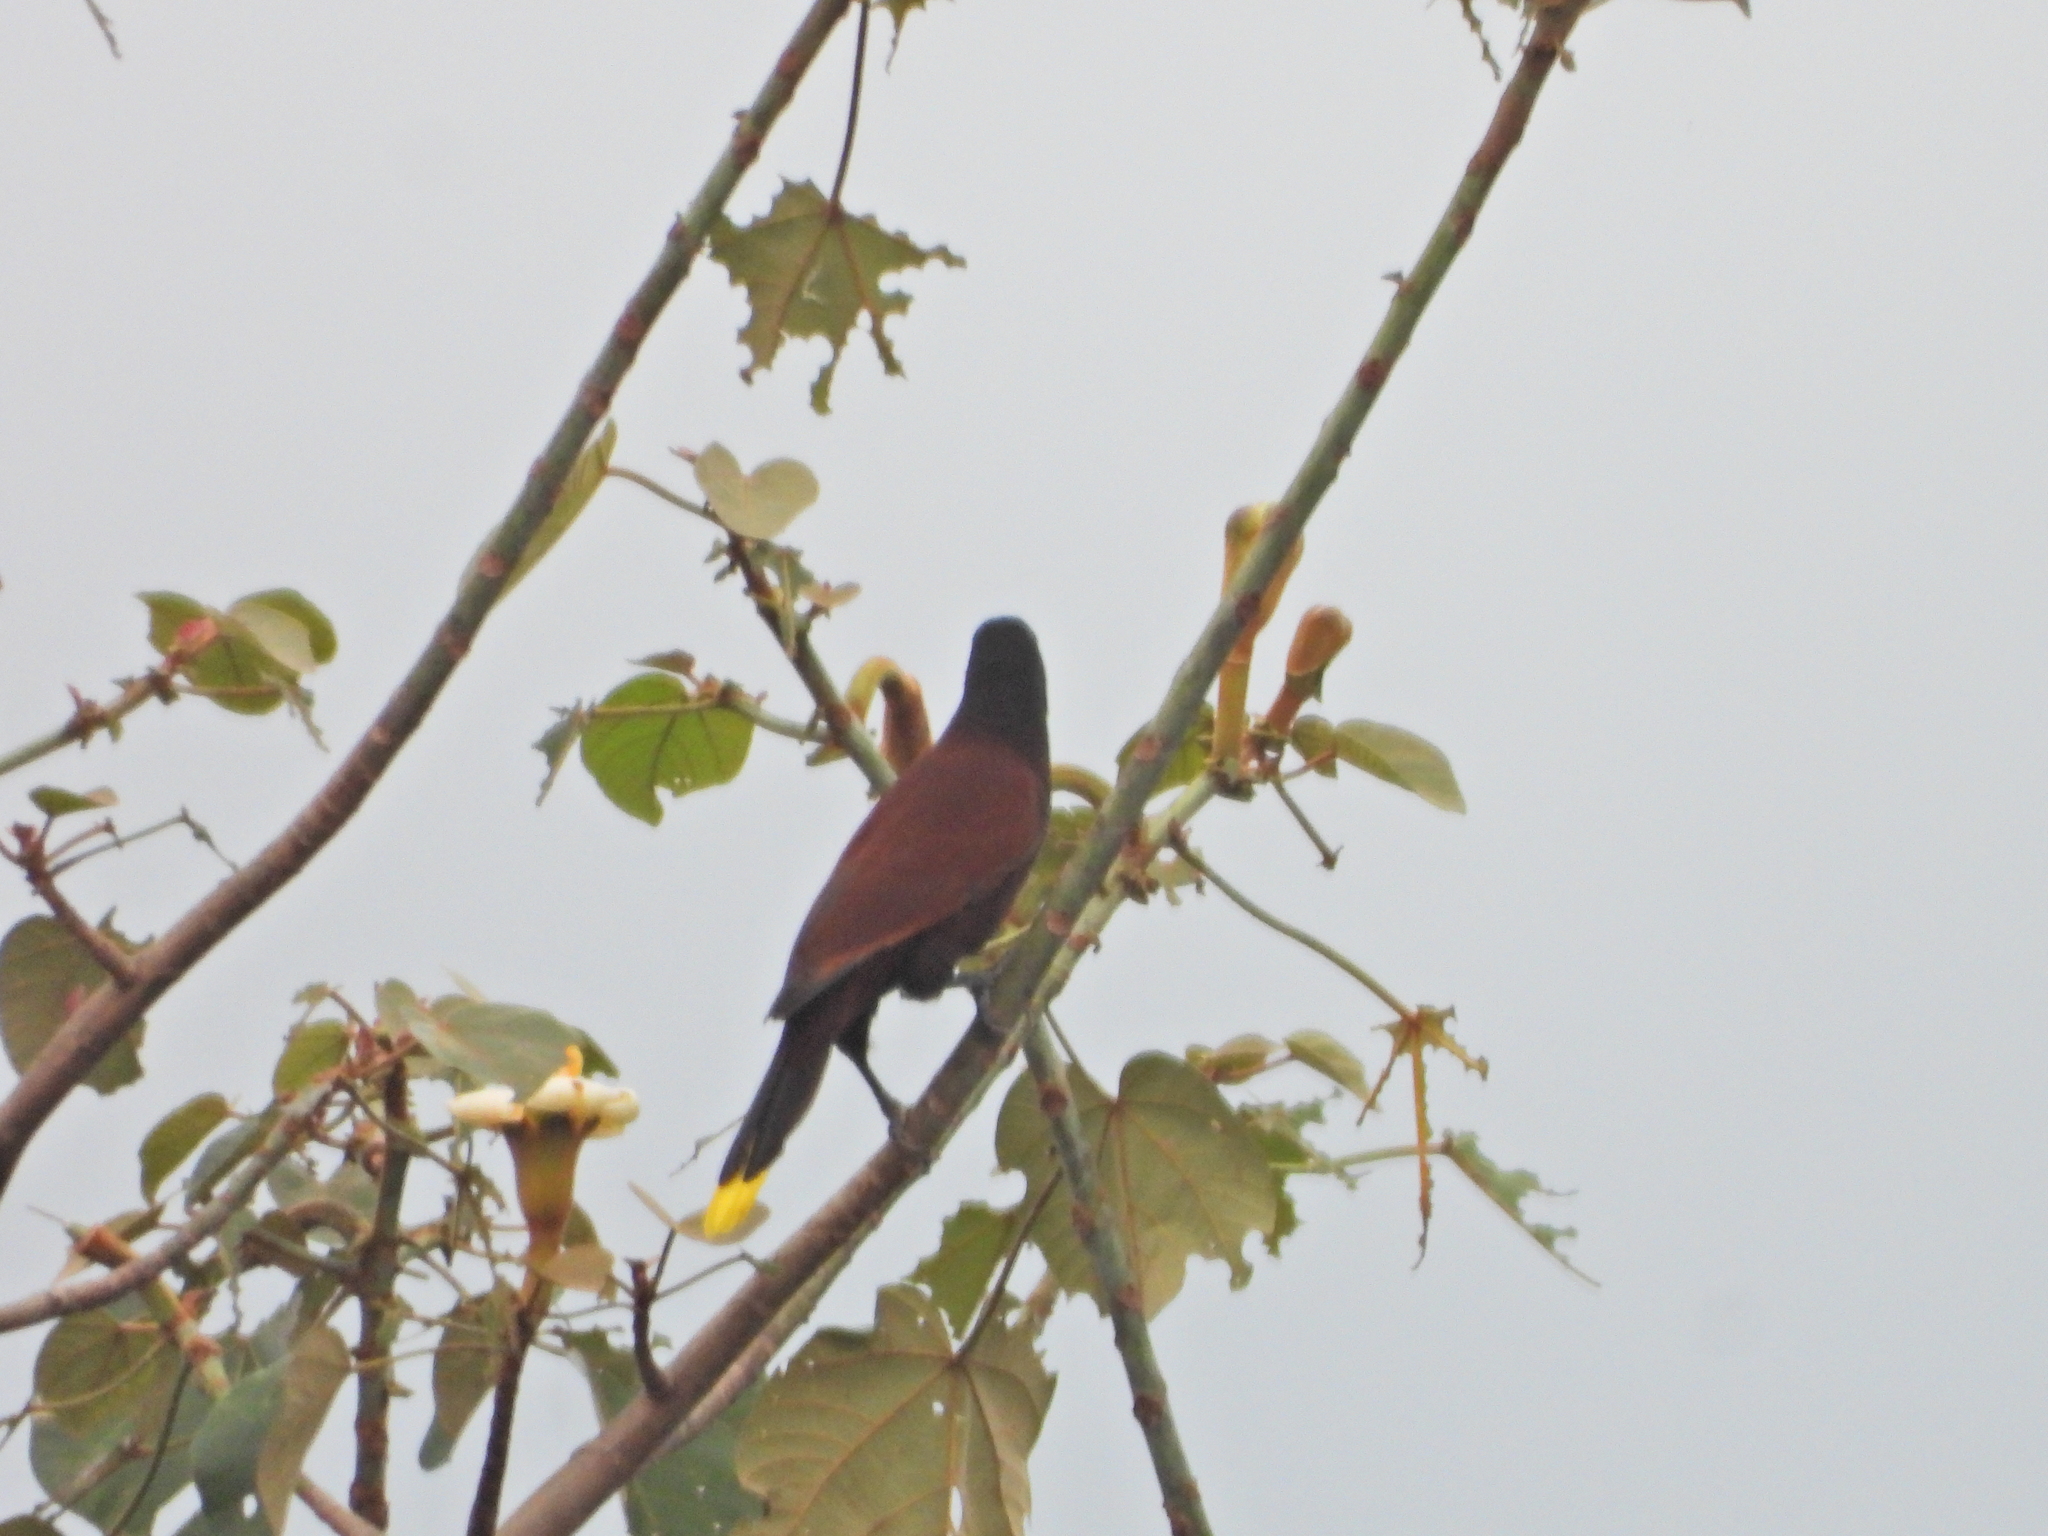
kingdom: Animalia
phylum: Chordata
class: Aves
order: Passeriformes
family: Icteridae
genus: Psarocolius
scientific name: Psarocolius montezuma
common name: Montezuma oropendola
